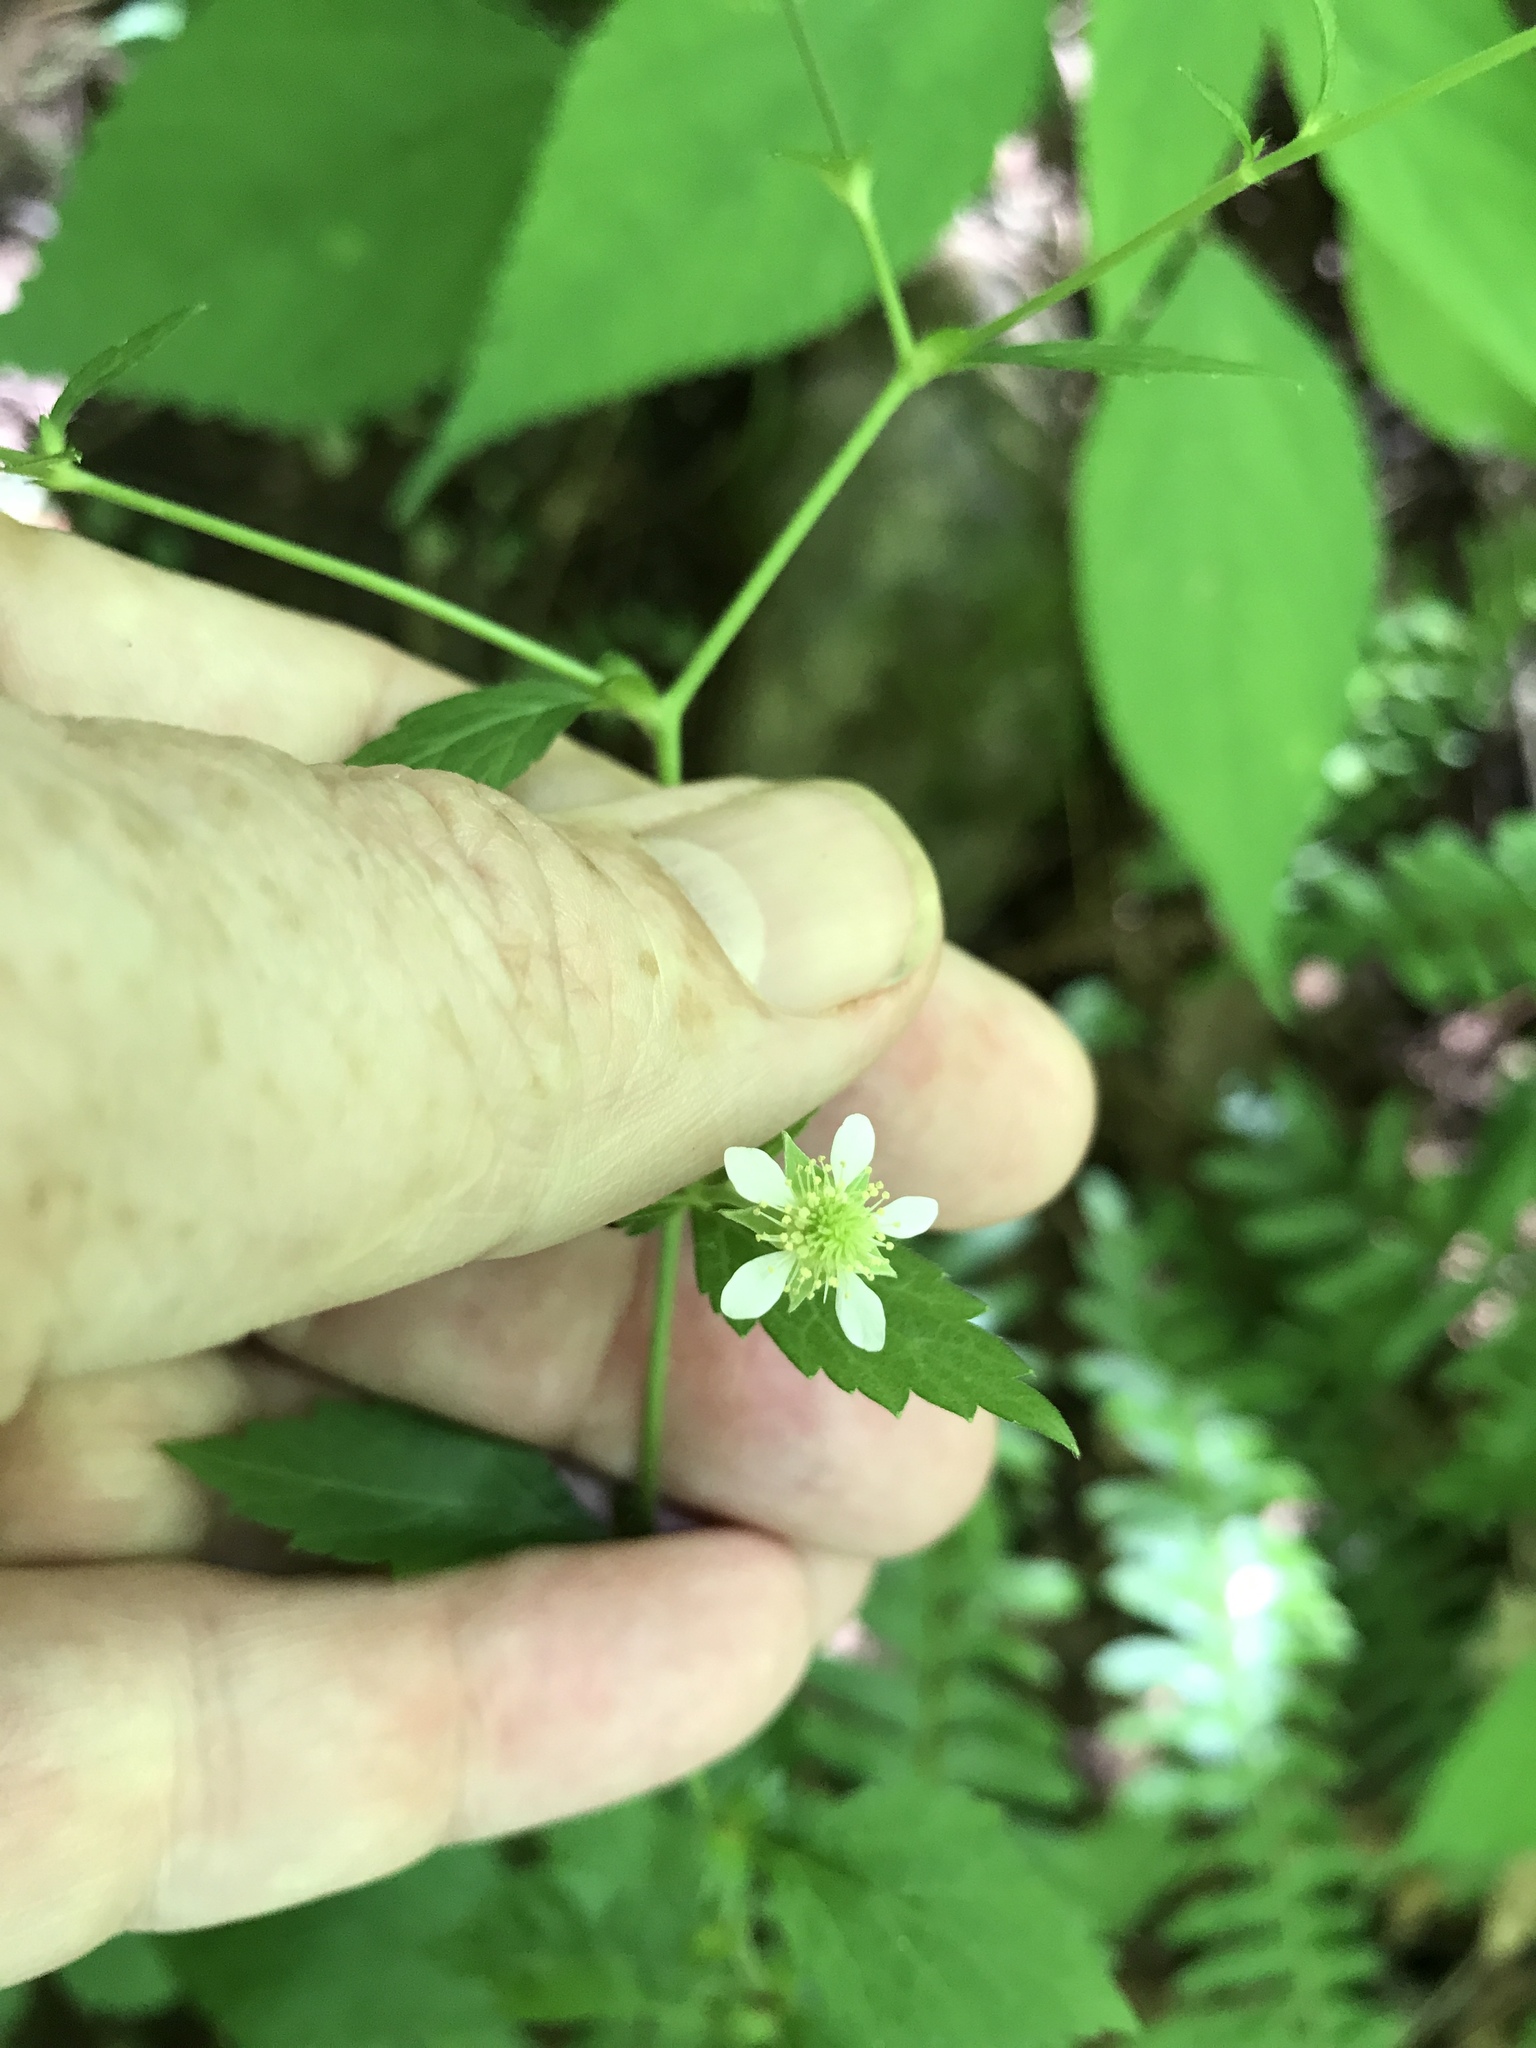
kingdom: Plantae
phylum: Tracheophyta
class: Magnoliopsida
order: Rosales
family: Rosaceae
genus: Geum
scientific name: Geum canadense
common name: White avens
